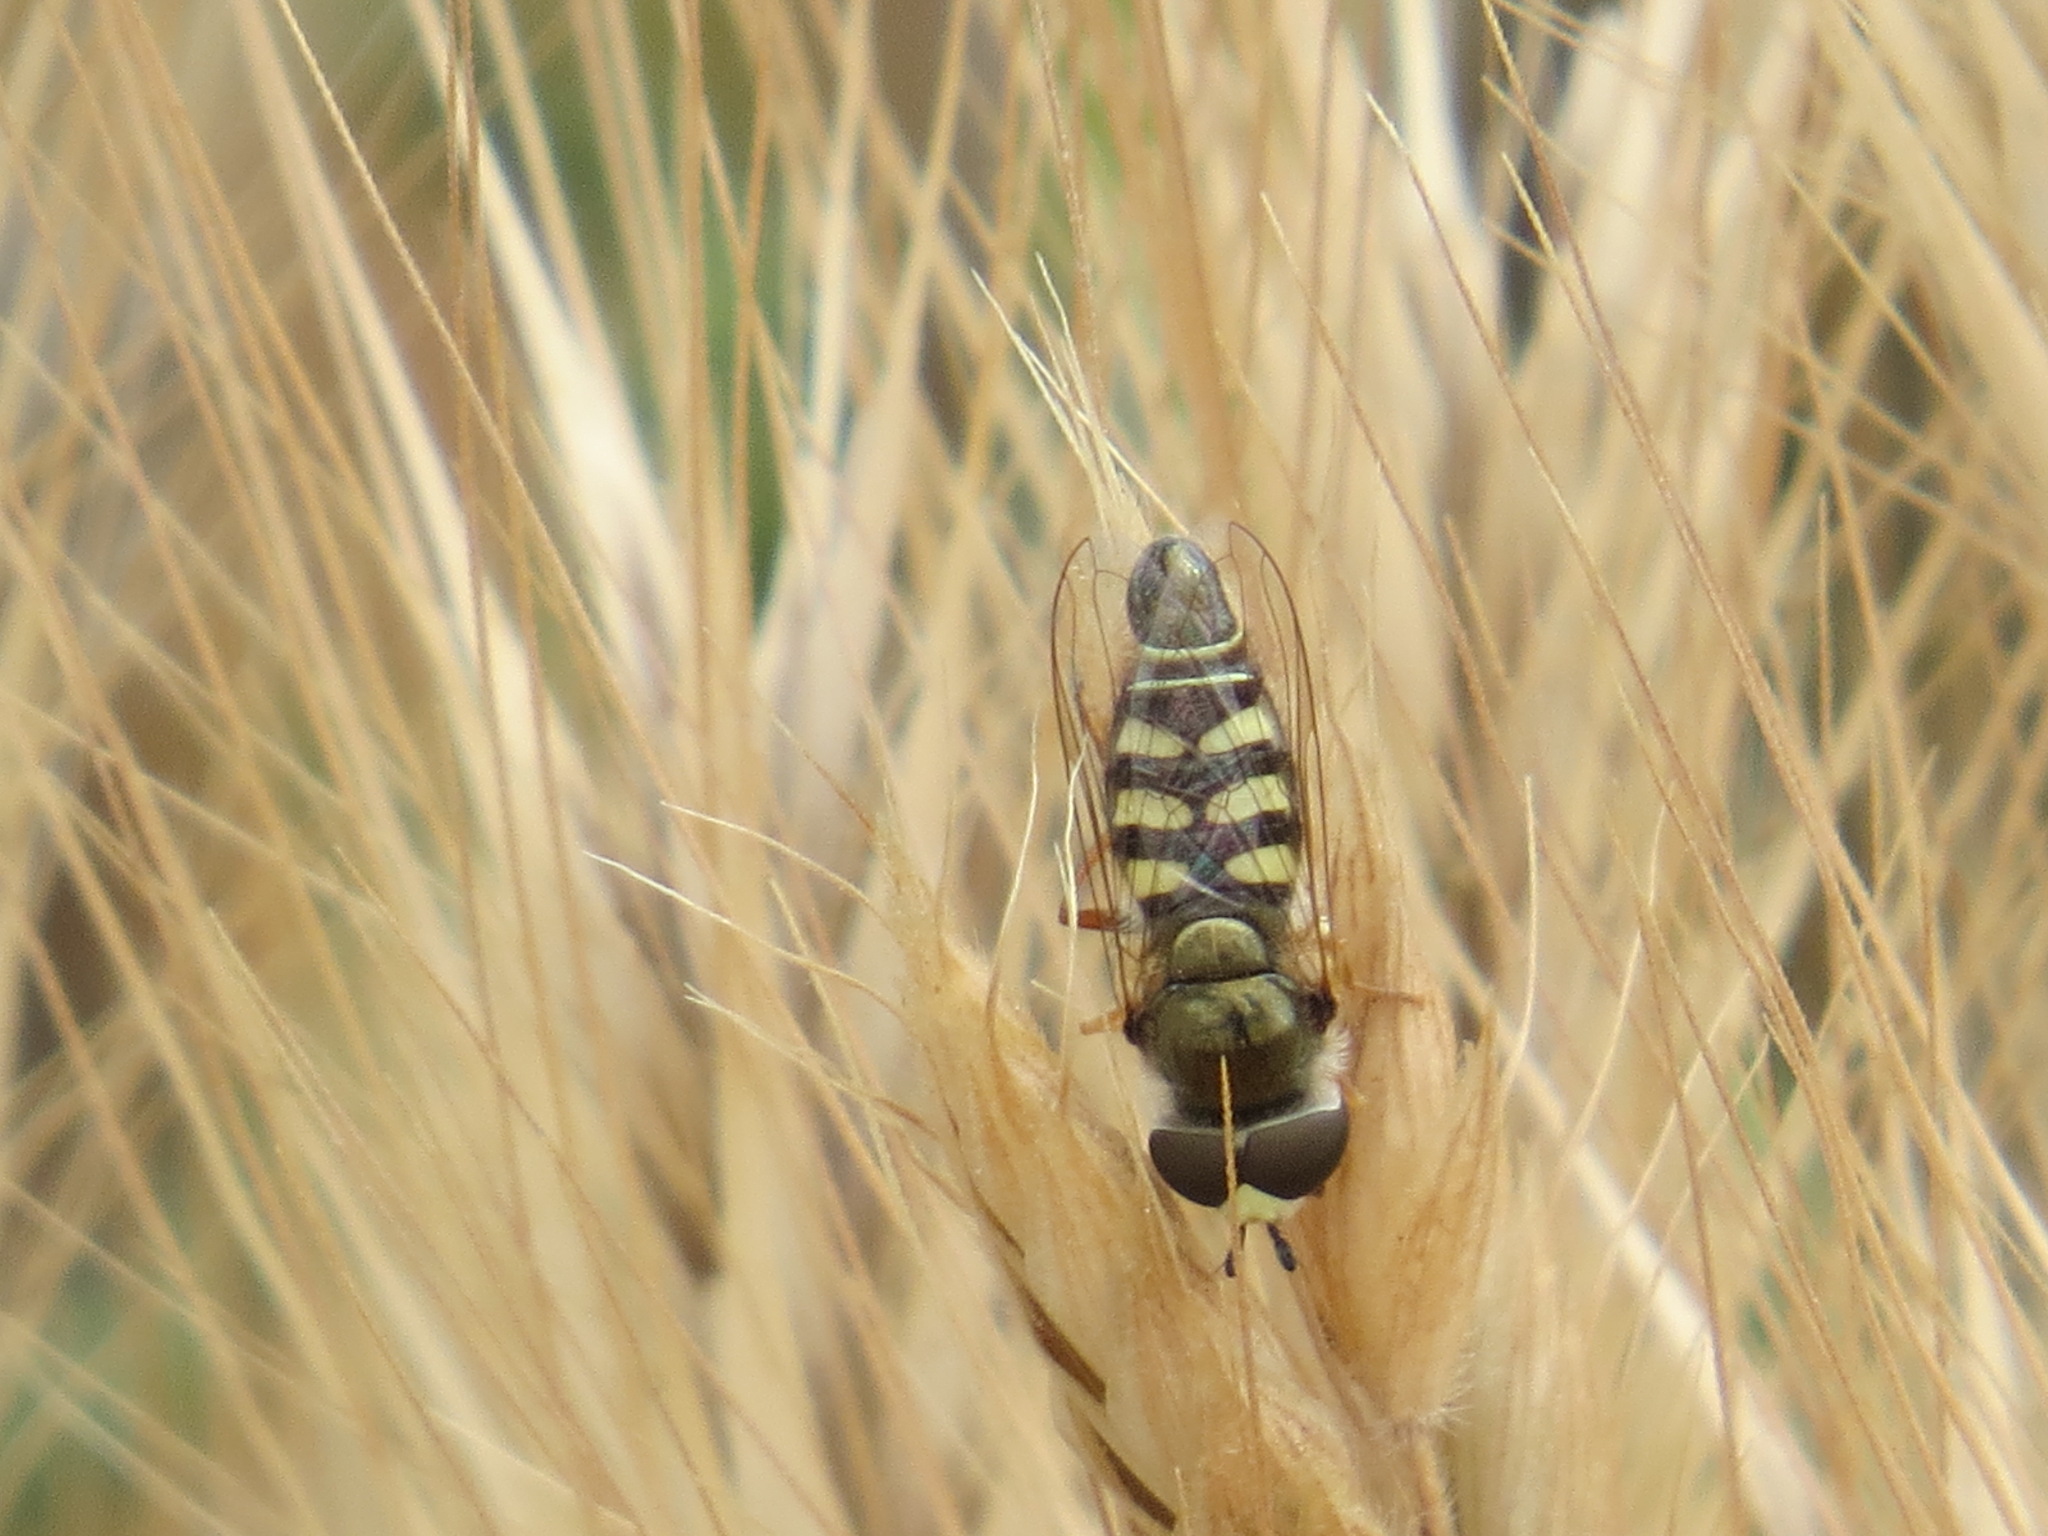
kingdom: Animalia
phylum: Arthropoda
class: Insecta
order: Diptera
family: Syrphidae
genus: Eupeodes
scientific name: Eupeodes volucris
